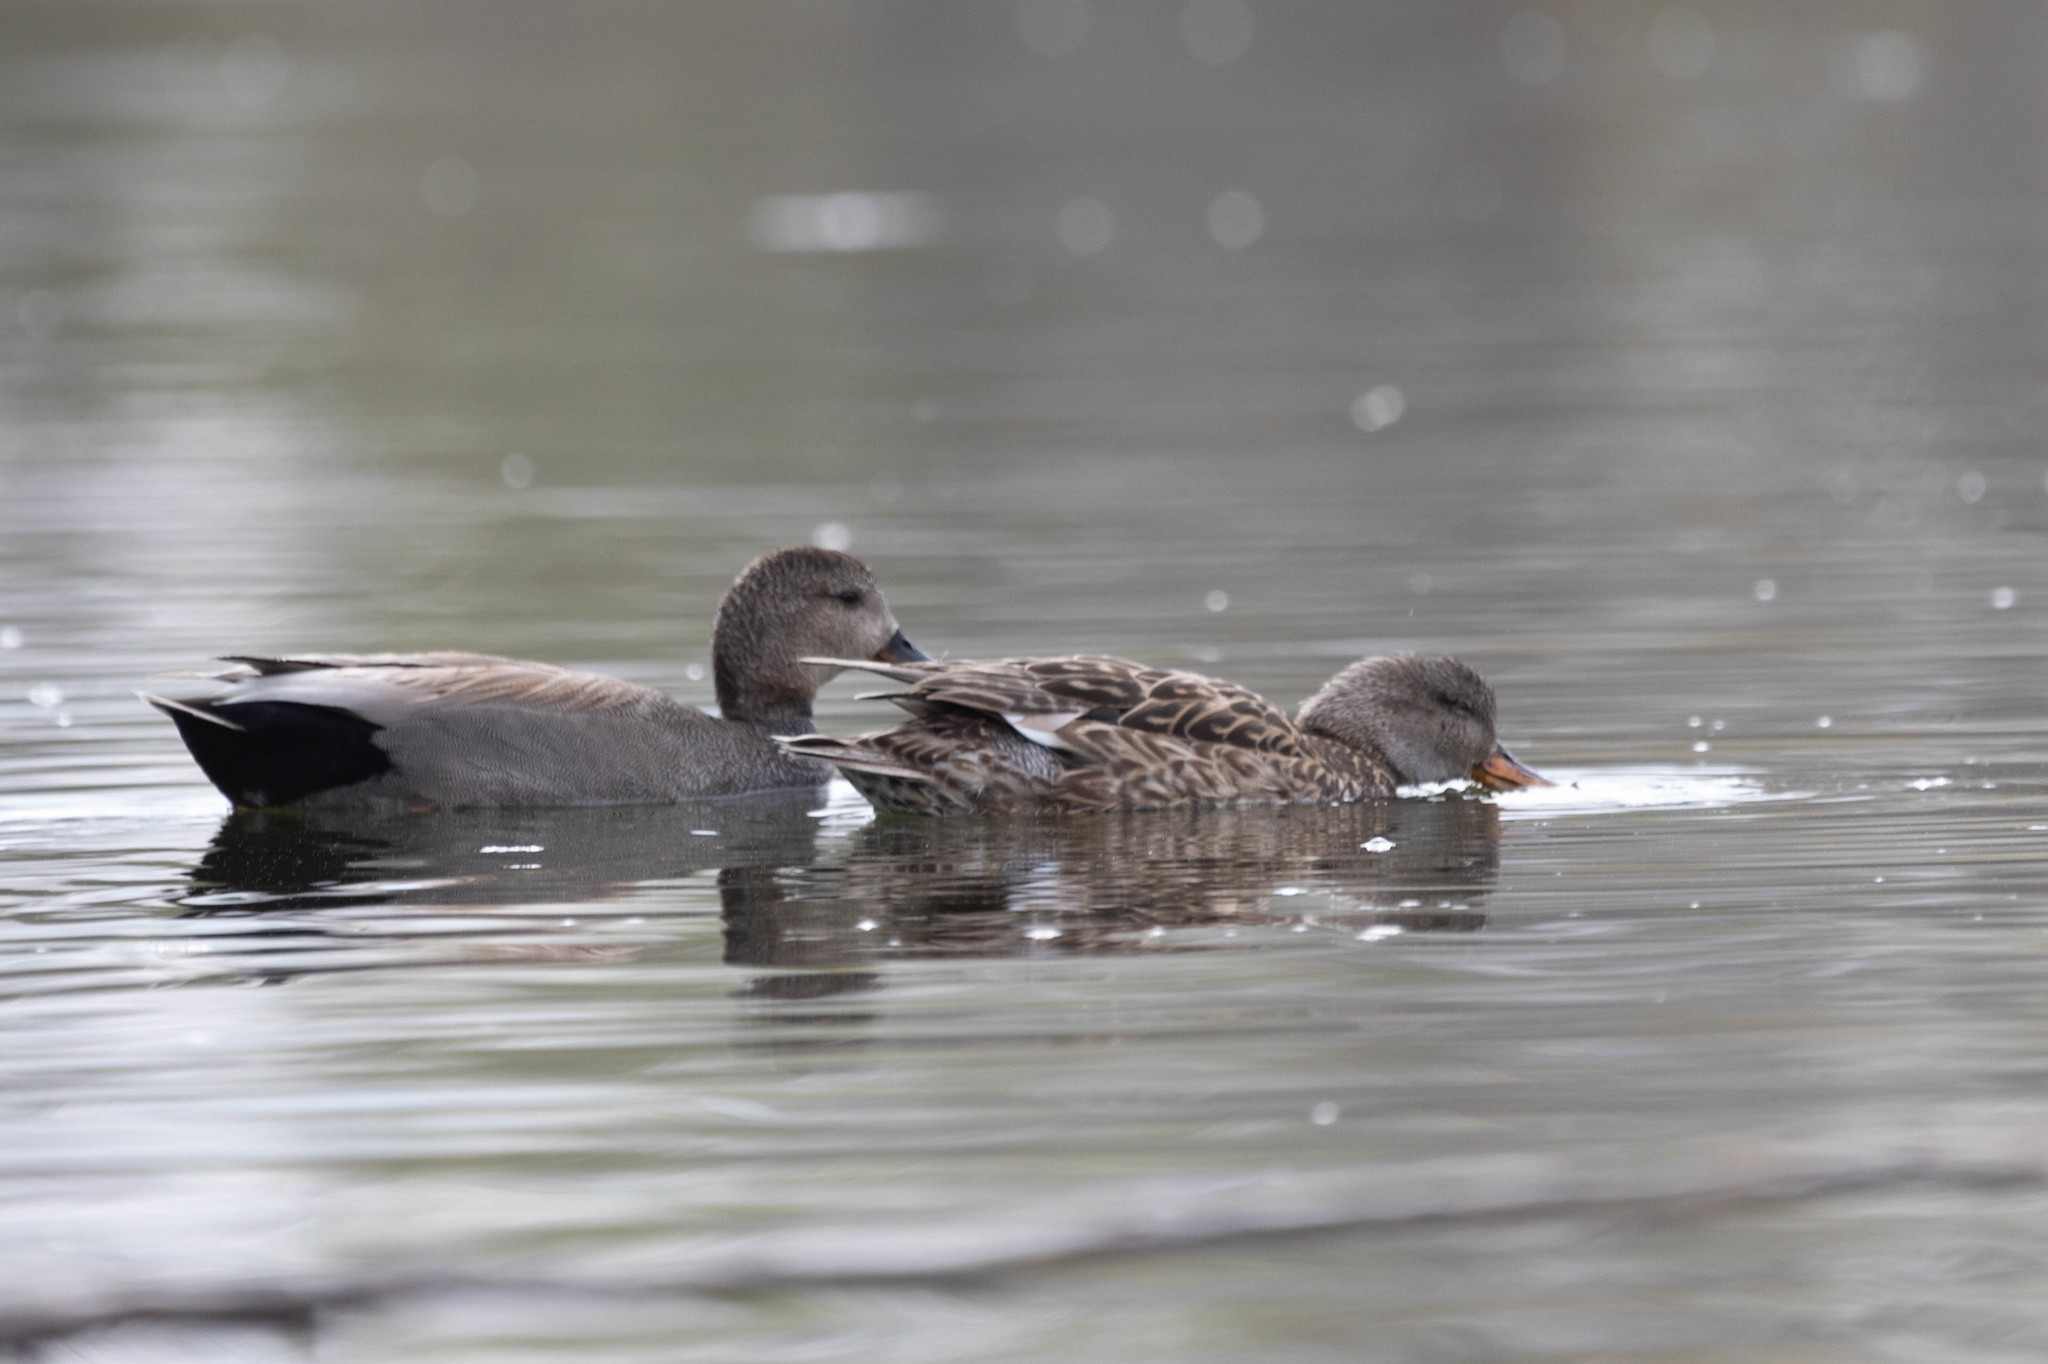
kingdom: Animalia
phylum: Chordata
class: Aves
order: Anseriformes
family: Anatidae
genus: Mareca
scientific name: Mareca strepera
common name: Gadwall
